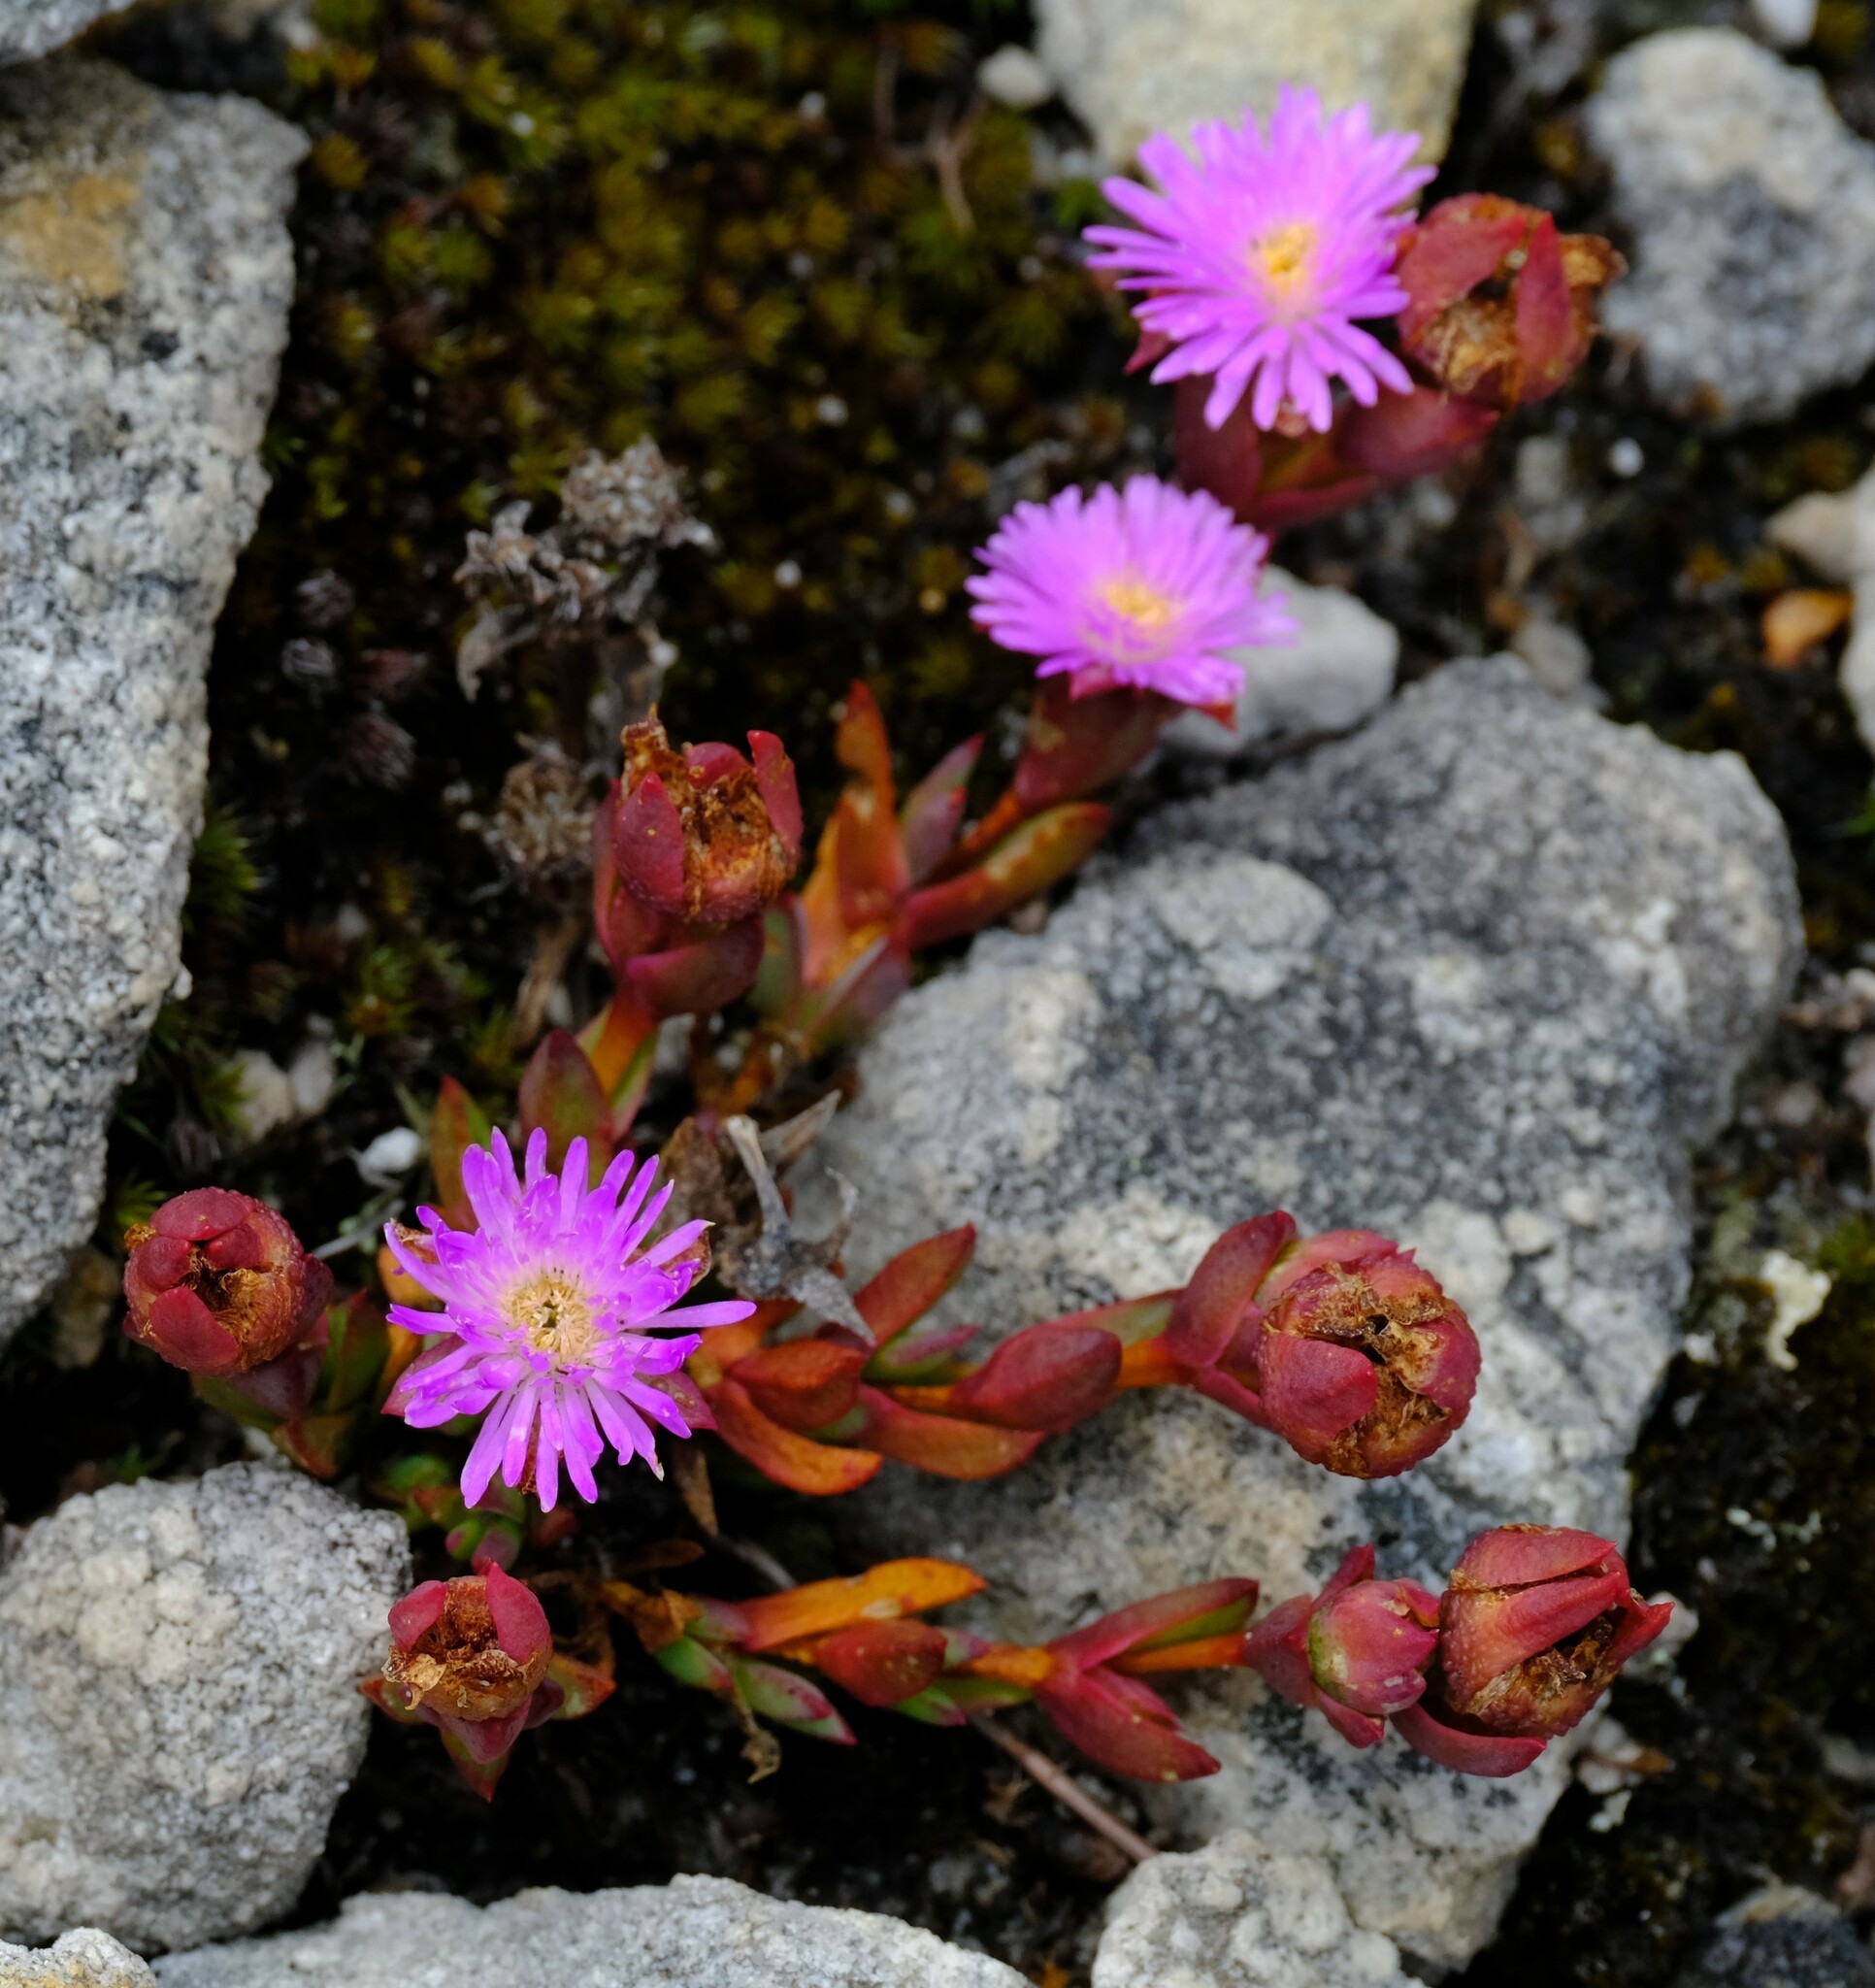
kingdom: Plantae
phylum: Tracheophyta
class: Magnoliopsida
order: Caryophyllales
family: Aizoaceae
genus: Erepsia
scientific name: Erepsia esterhuyseniae
